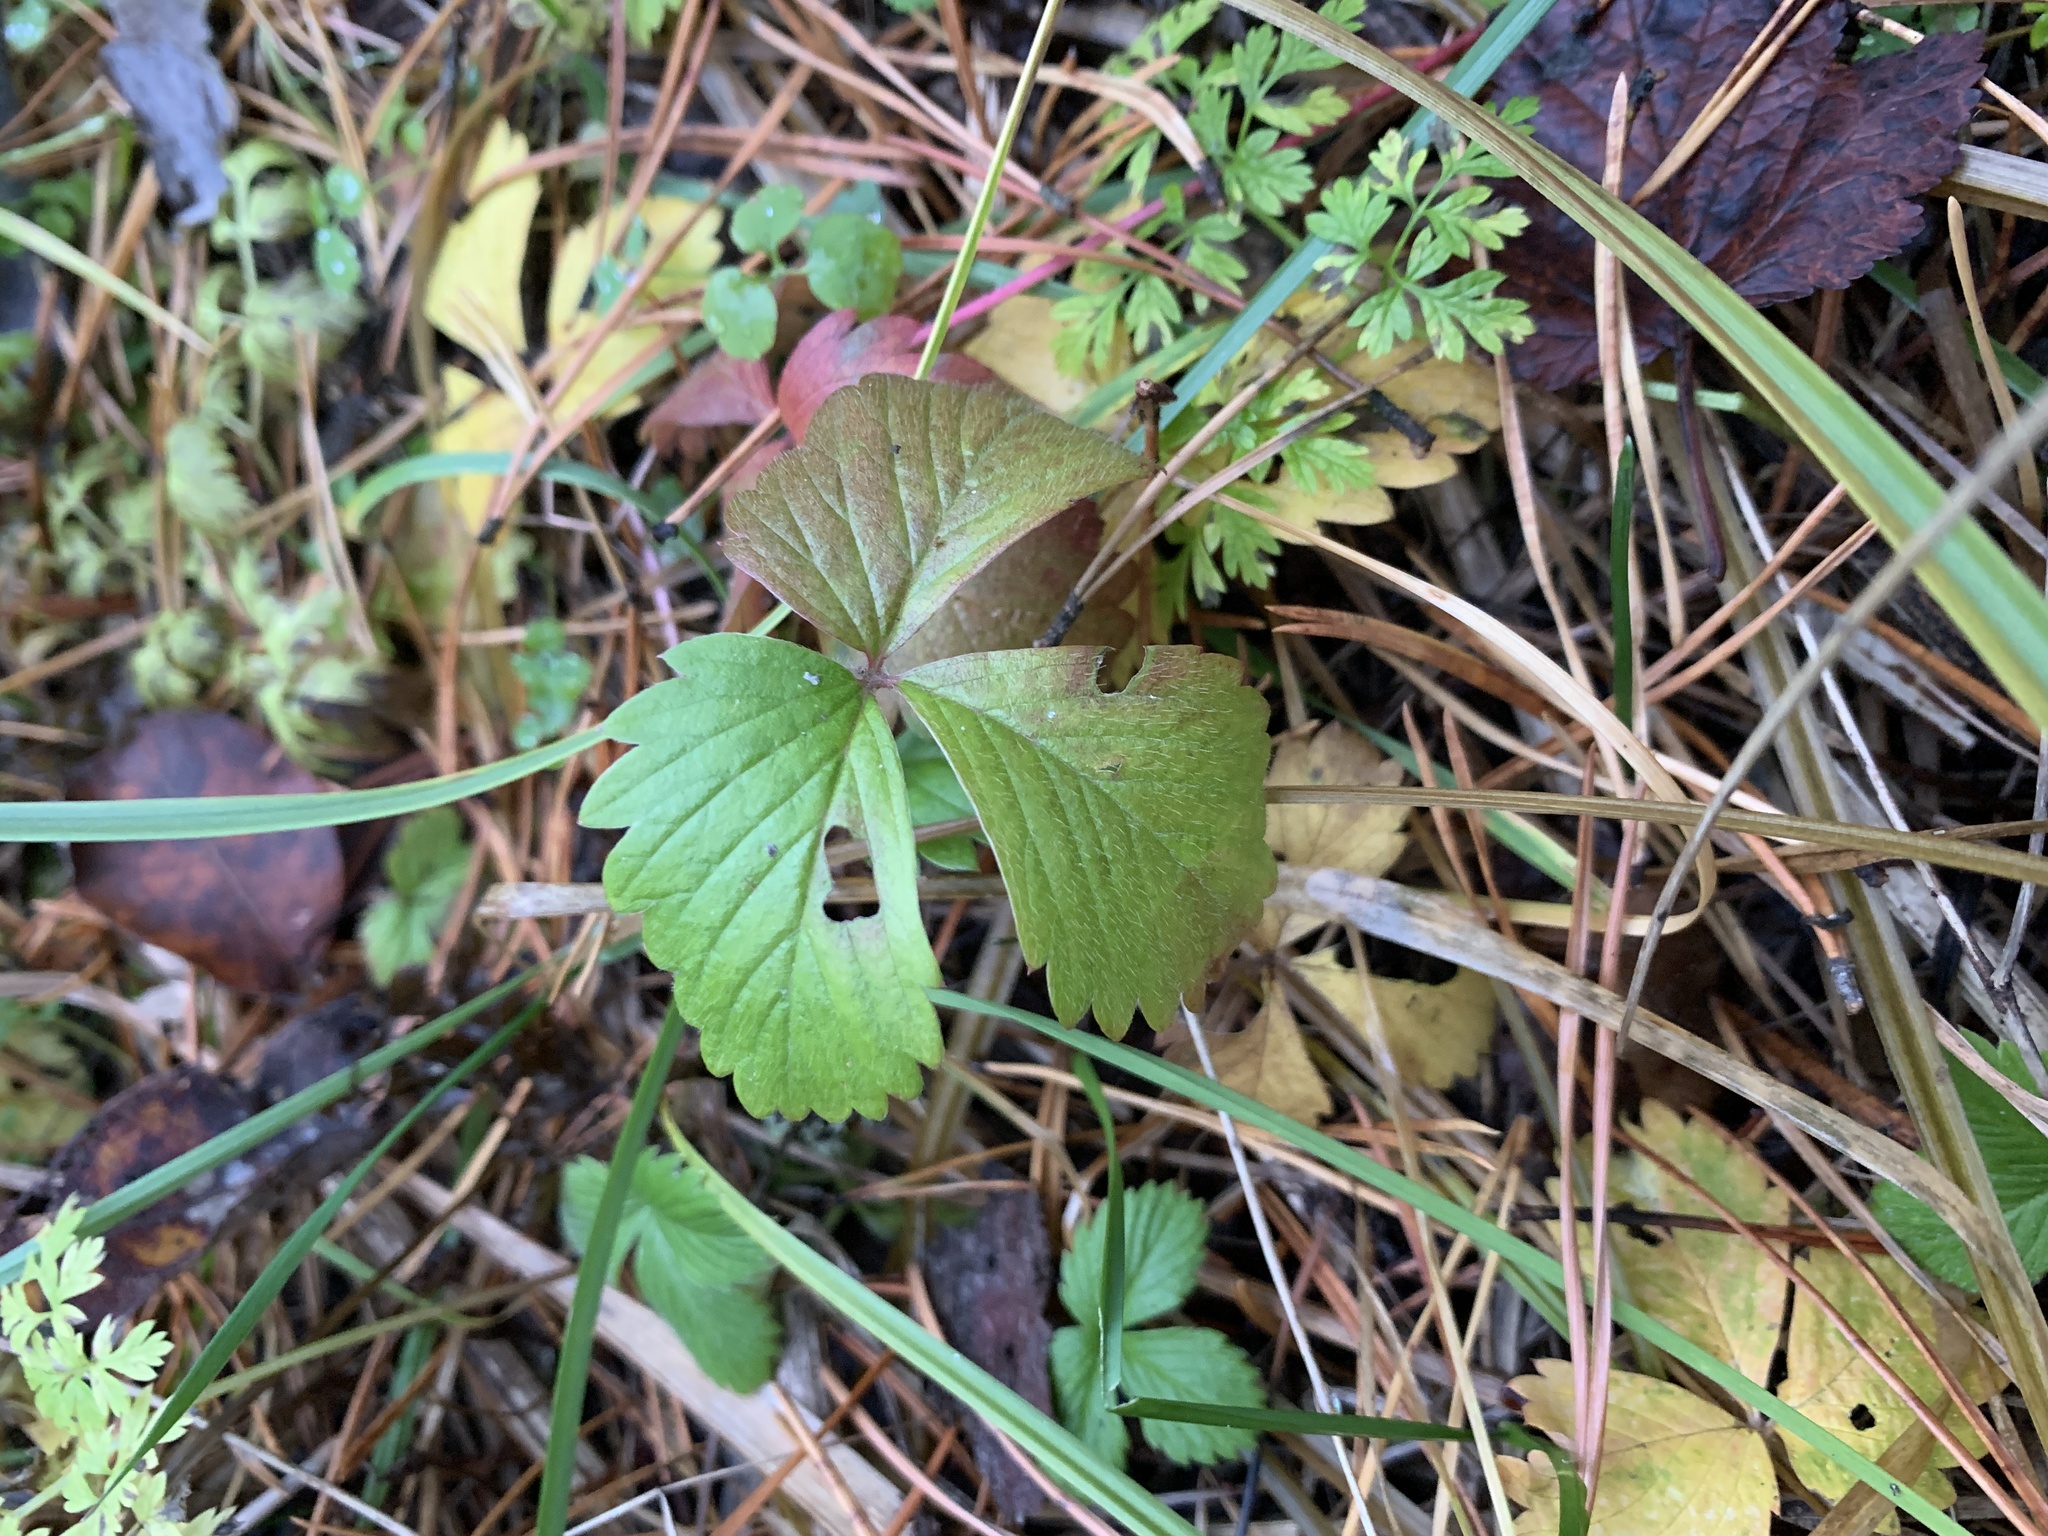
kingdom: Plantae
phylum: Tracheophyta
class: Magnoliopsida
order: Rosales
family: Rosaceae
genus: Fragaria
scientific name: Fragaria vesca
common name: Wild strawberry
